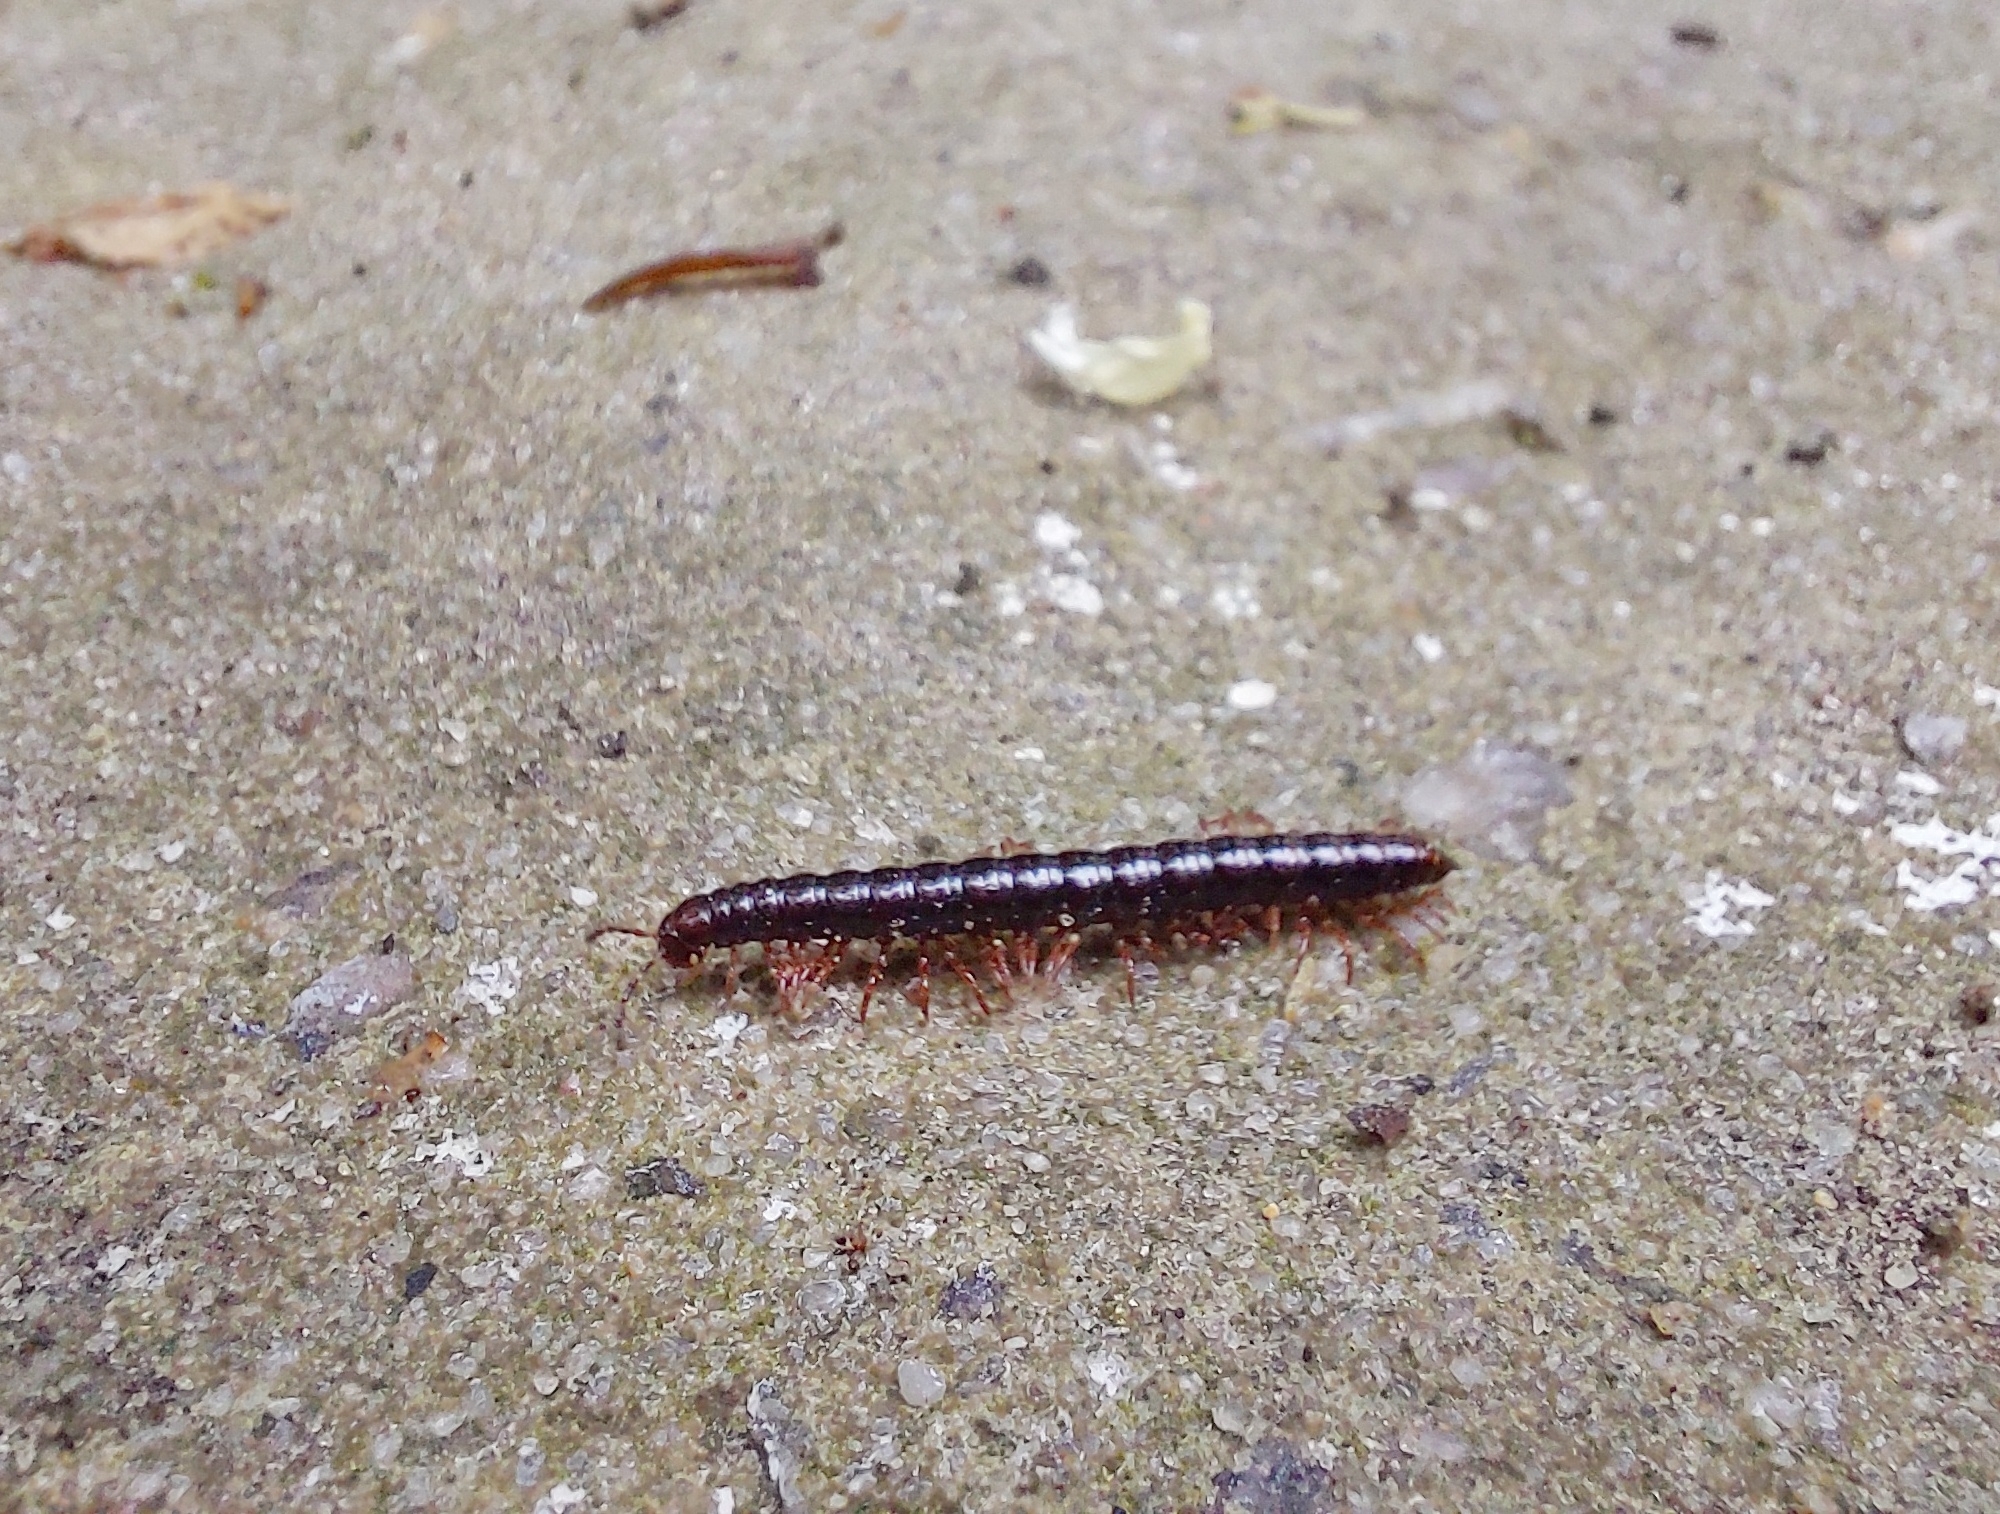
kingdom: Animalia
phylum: Arthropoda
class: Diplopoda
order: Polydesmida
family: Paradoxosomatidae
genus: Strongylosoma
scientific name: Strongylosoma stigmatosus
